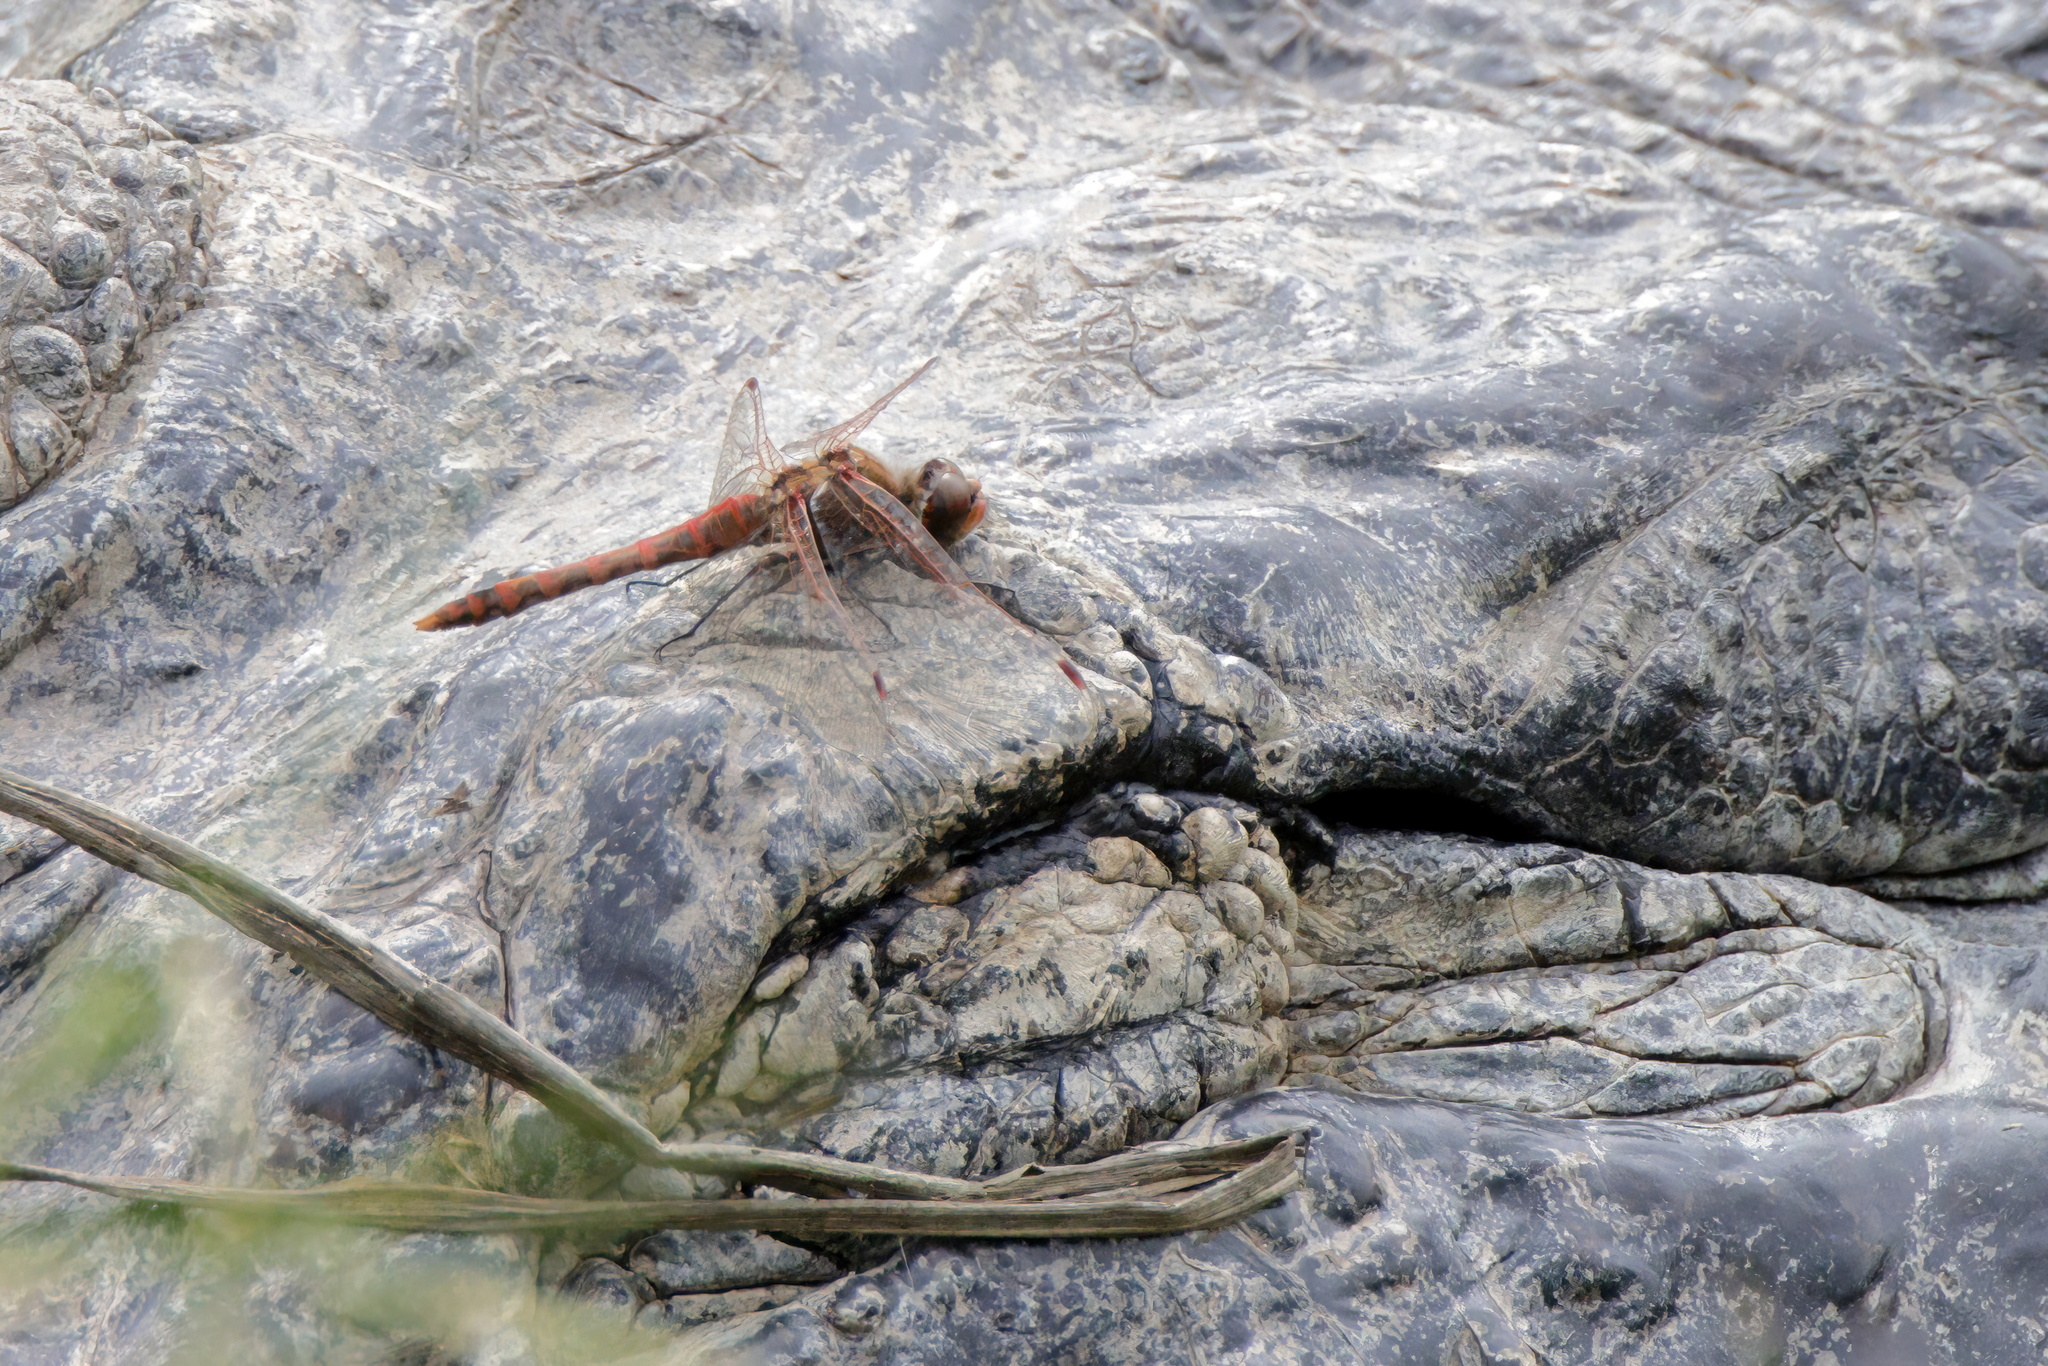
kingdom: Animalia
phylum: Arthropoda
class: Insecta
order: Odonata
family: Libellulidae
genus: Sympetrum
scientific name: Sympetrum corruptum
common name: Variegated meadowhawk
